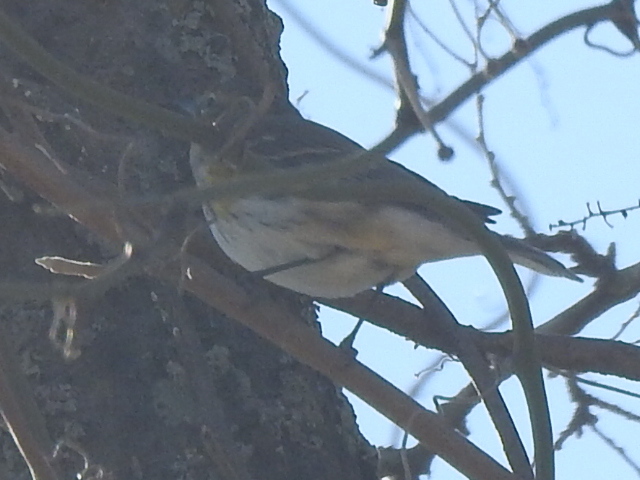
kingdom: Animalia
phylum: Chordata
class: Aves
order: Passeriformes
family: Parulidae
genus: Setophaga
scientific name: Setophaga coronata
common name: Myrtle warbler
